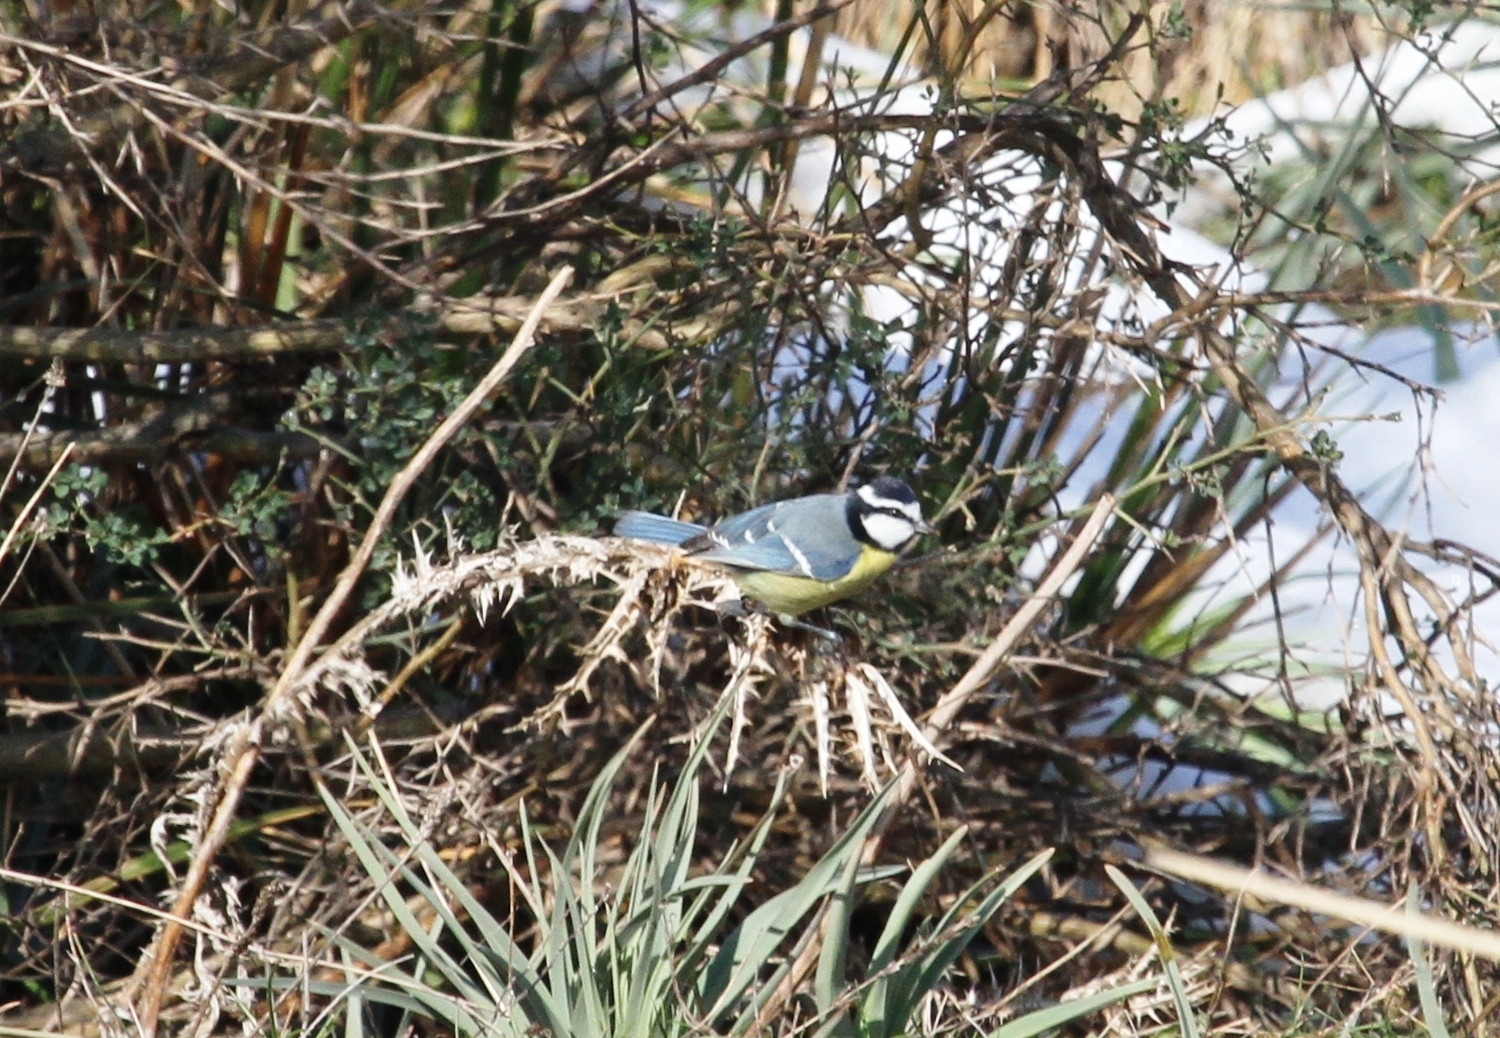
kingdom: Animalia
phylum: Chordata
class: Aves
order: Passeriformes
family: Paridae
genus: Cyanistes
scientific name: Cyanistes teneriffae
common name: African blue tit
